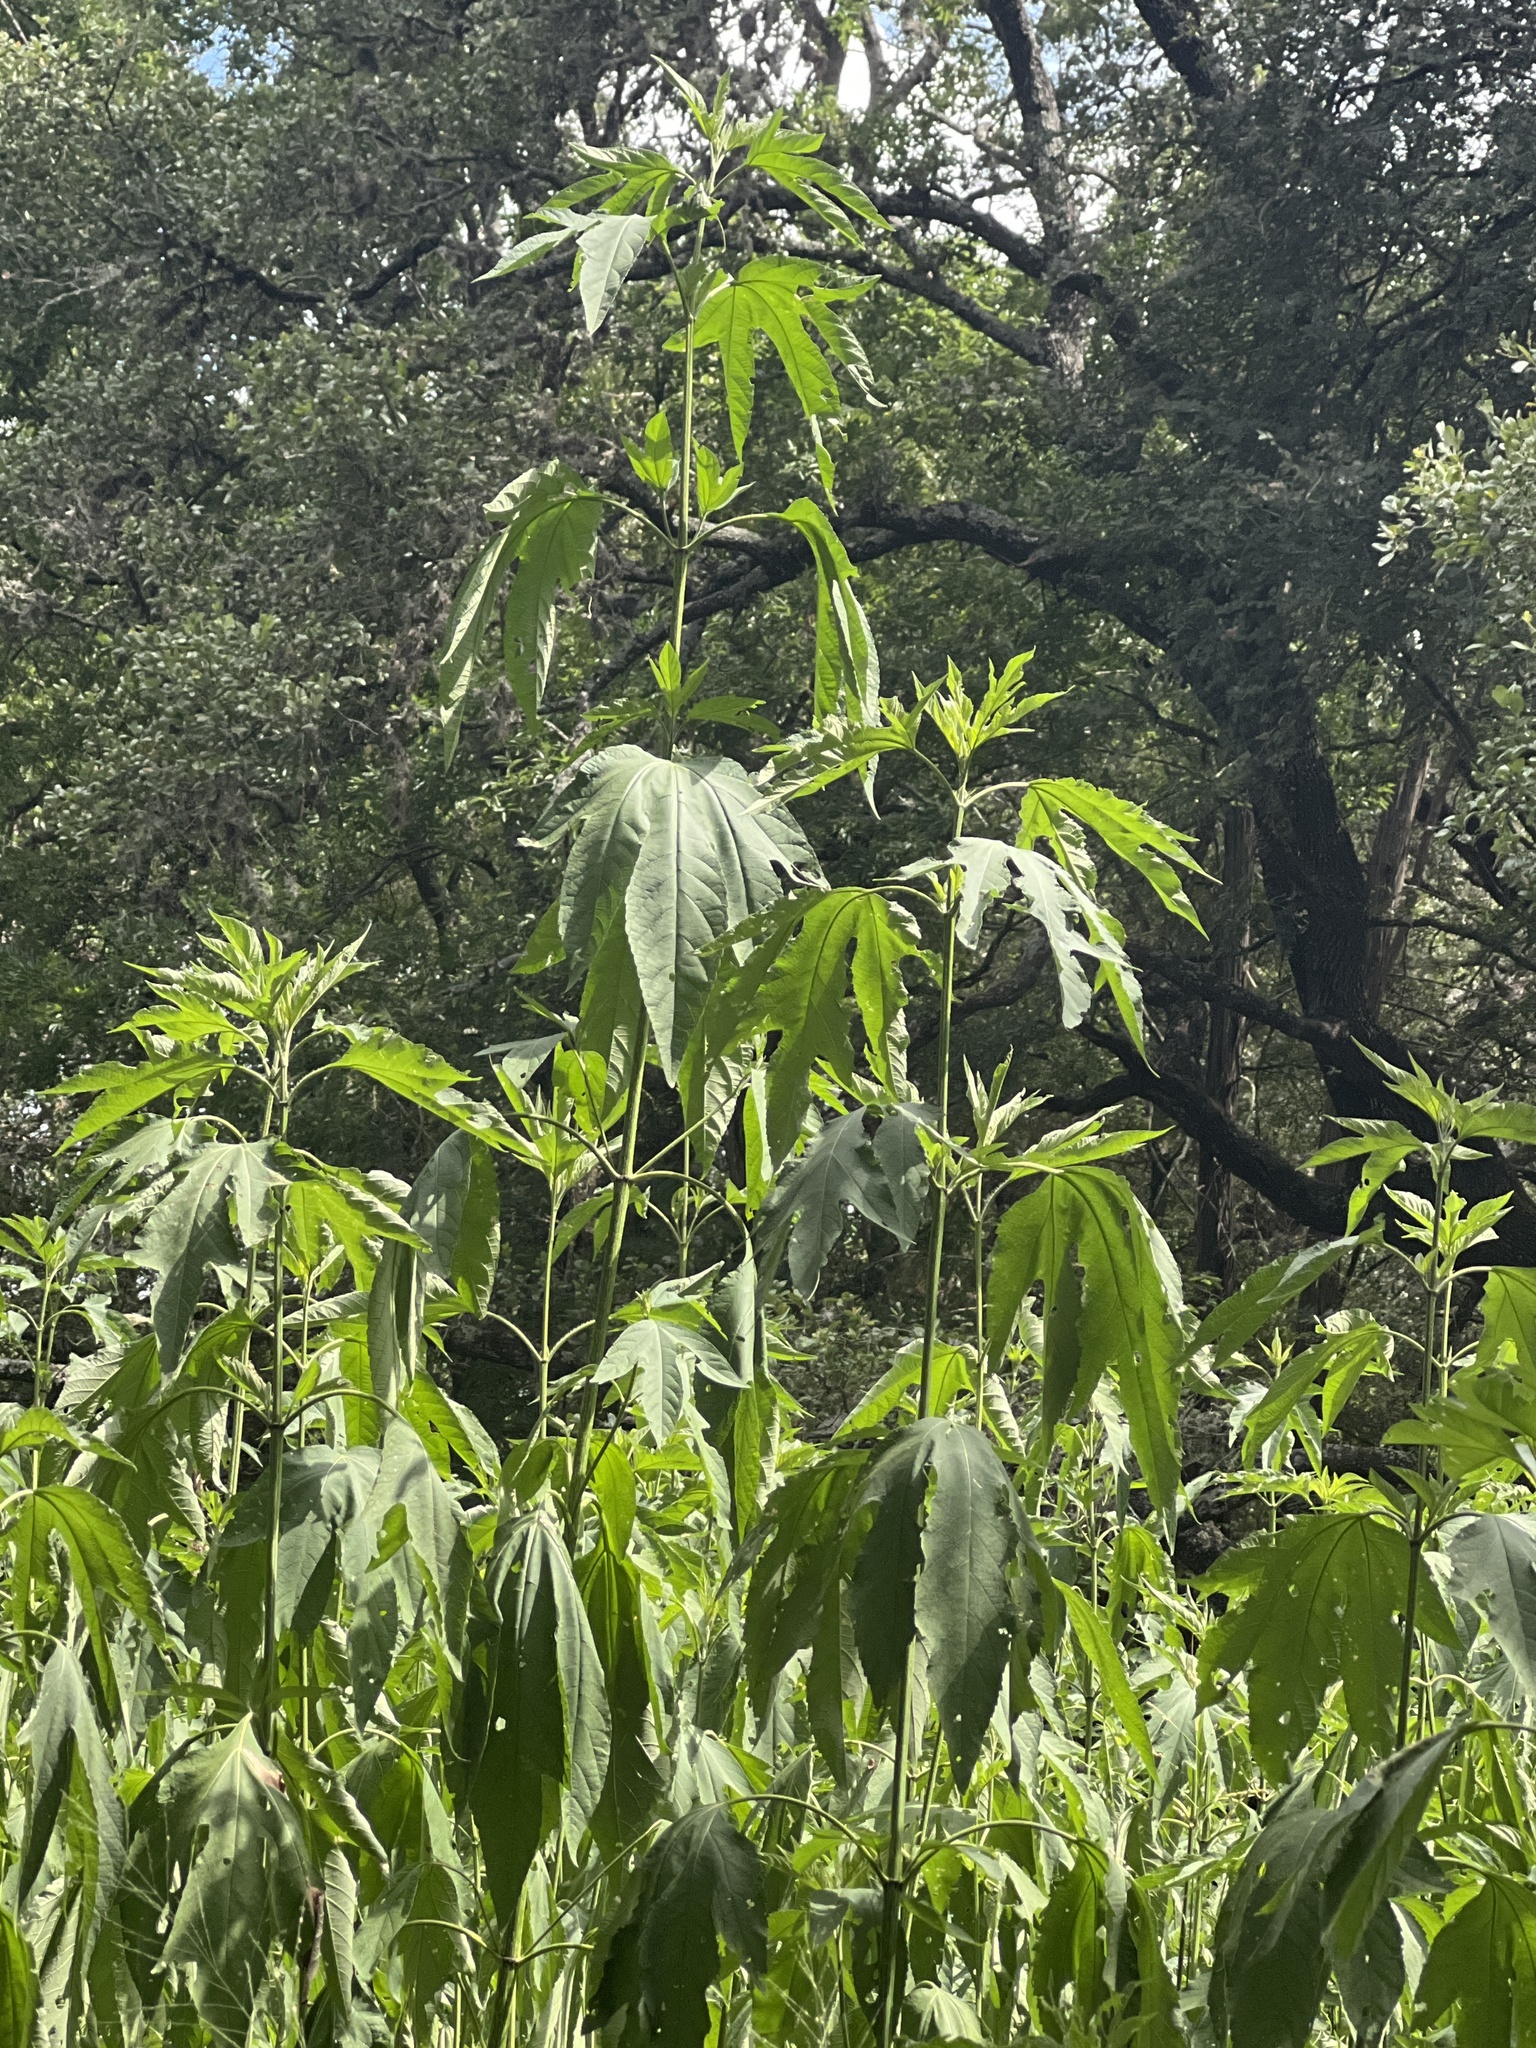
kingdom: Plantae
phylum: Tracheophyta
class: Magnoliopsida
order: Asterales
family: Asteraceae
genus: Ambrosia
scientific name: Ambrosia trifida
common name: Giant ragweed
